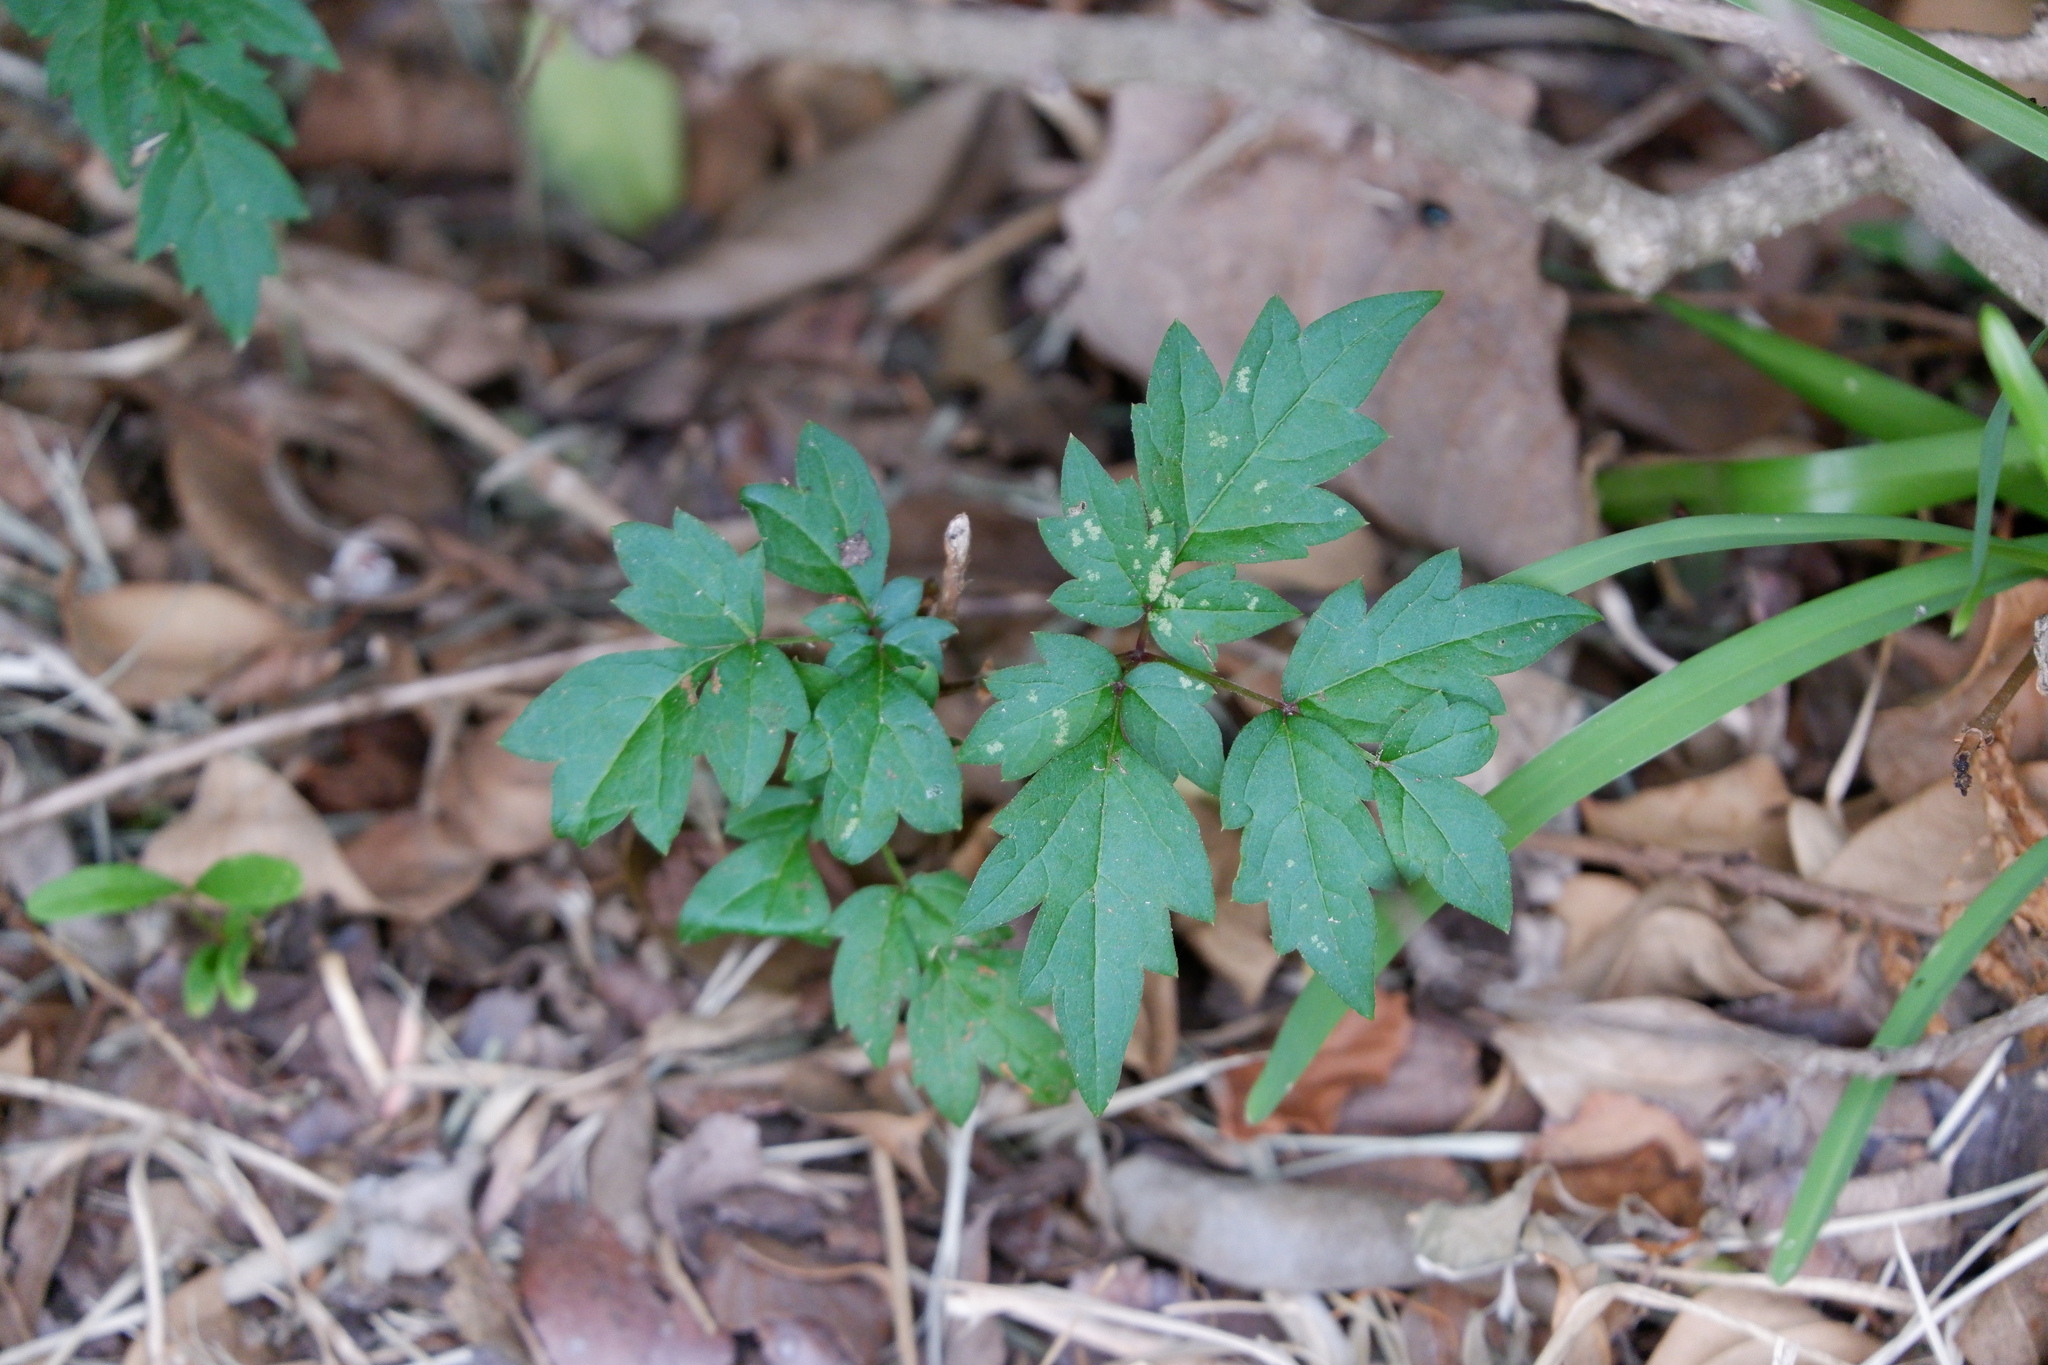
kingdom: Plantae
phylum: Tracheophyta
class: Magnoliopsida
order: Vitales
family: Vitaceae
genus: Nekemias
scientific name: Nekemias arborea
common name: Peppervine
